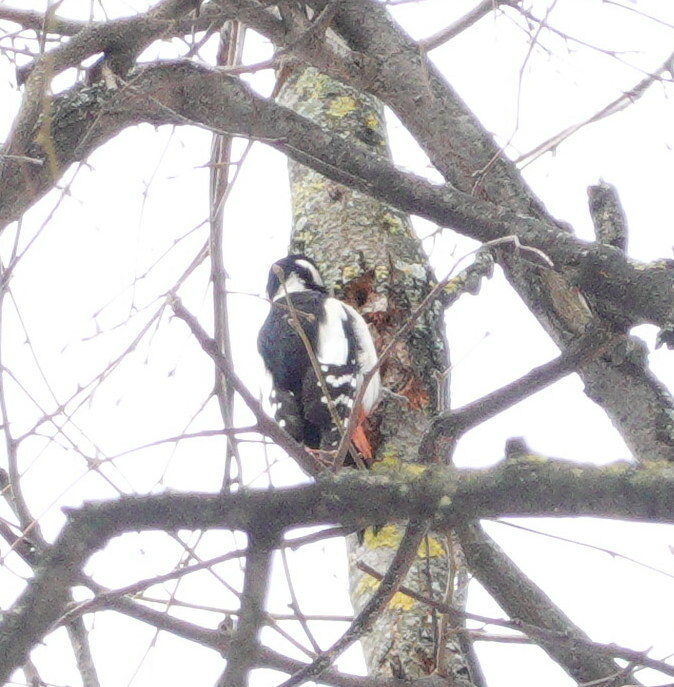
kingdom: Animalia
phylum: Chordata
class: Aves
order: Piciformes
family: Picidae
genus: Dendrocopos
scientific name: Dendrocopos major
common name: Great spotted woodpecker
